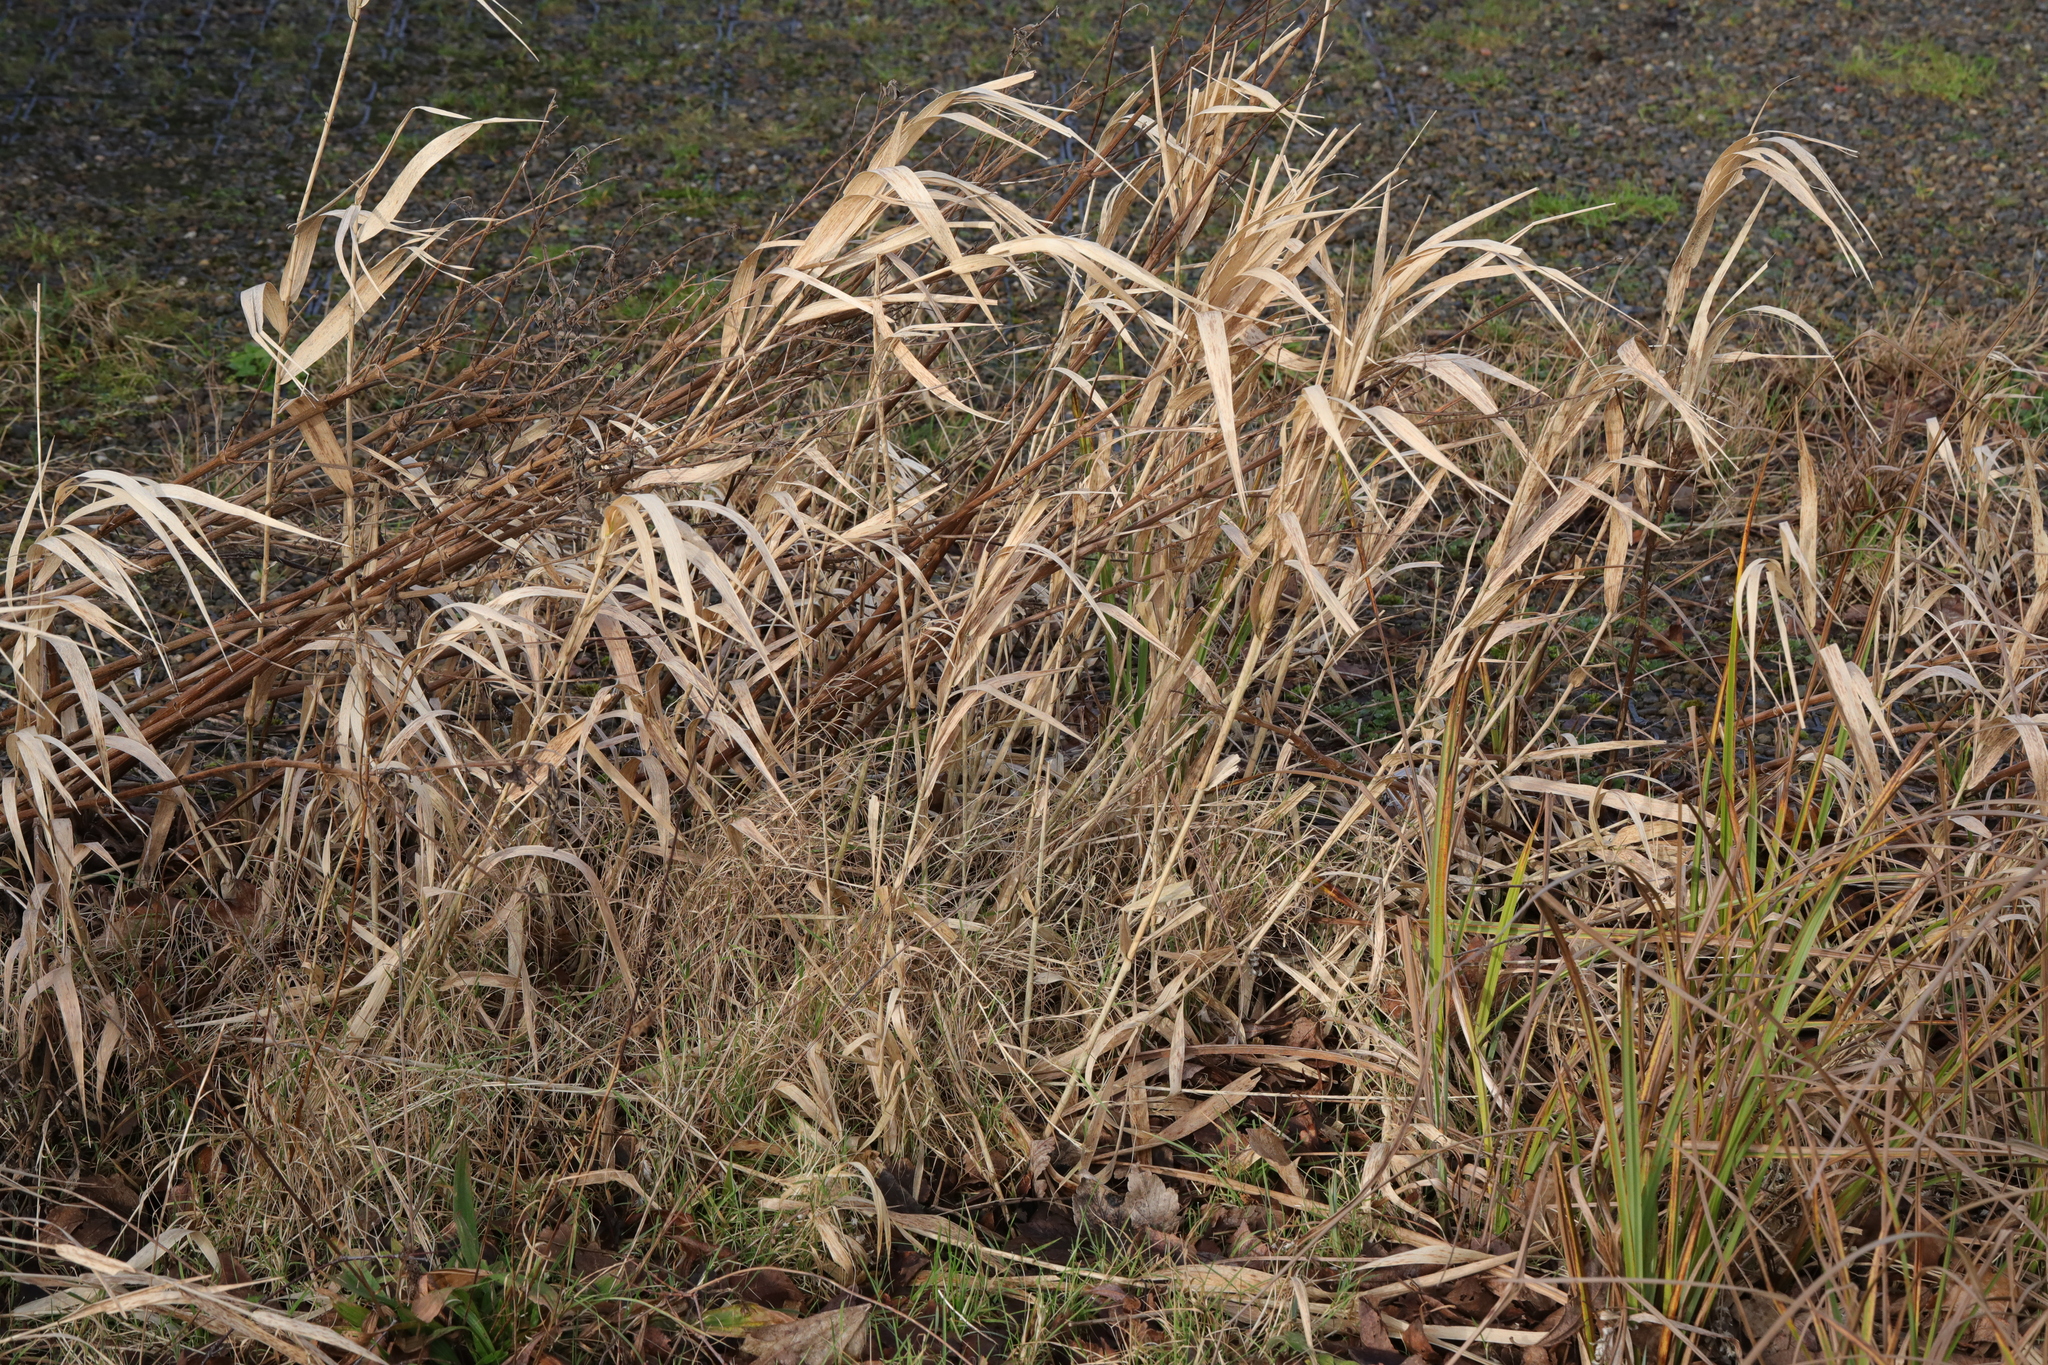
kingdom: Plantae
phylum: Tracheophyta
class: Liliopsida
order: Poales
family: Poaceae
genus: Phalaris
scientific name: Phalaris arundinacea
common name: Reed canary-grass
